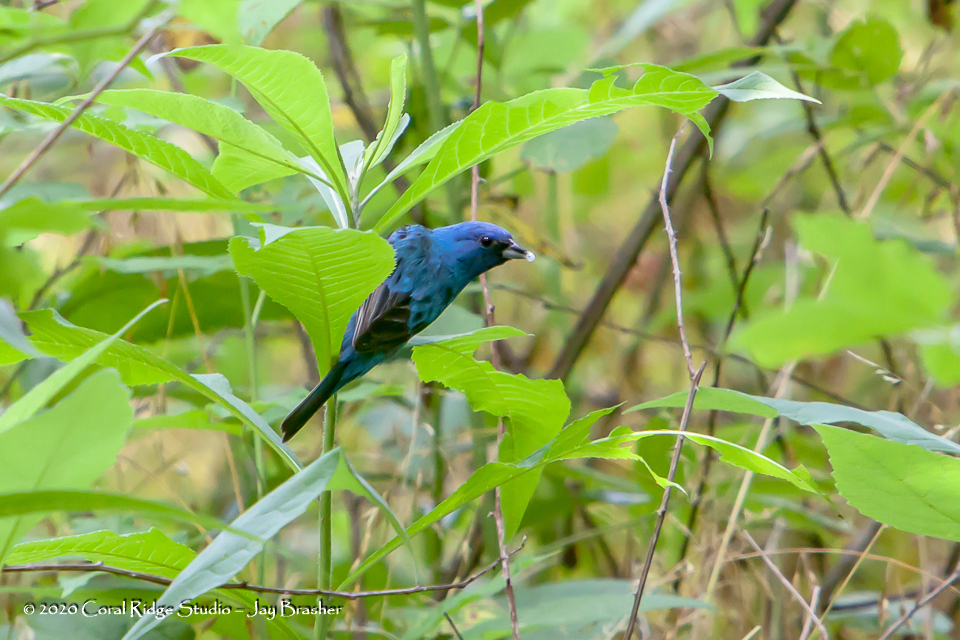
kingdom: Animalia
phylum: Chordata
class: Aves
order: Passeriformes
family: Cardinalidae
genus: Passerina
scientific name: Passerina cyanea
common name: Indigo bunting
